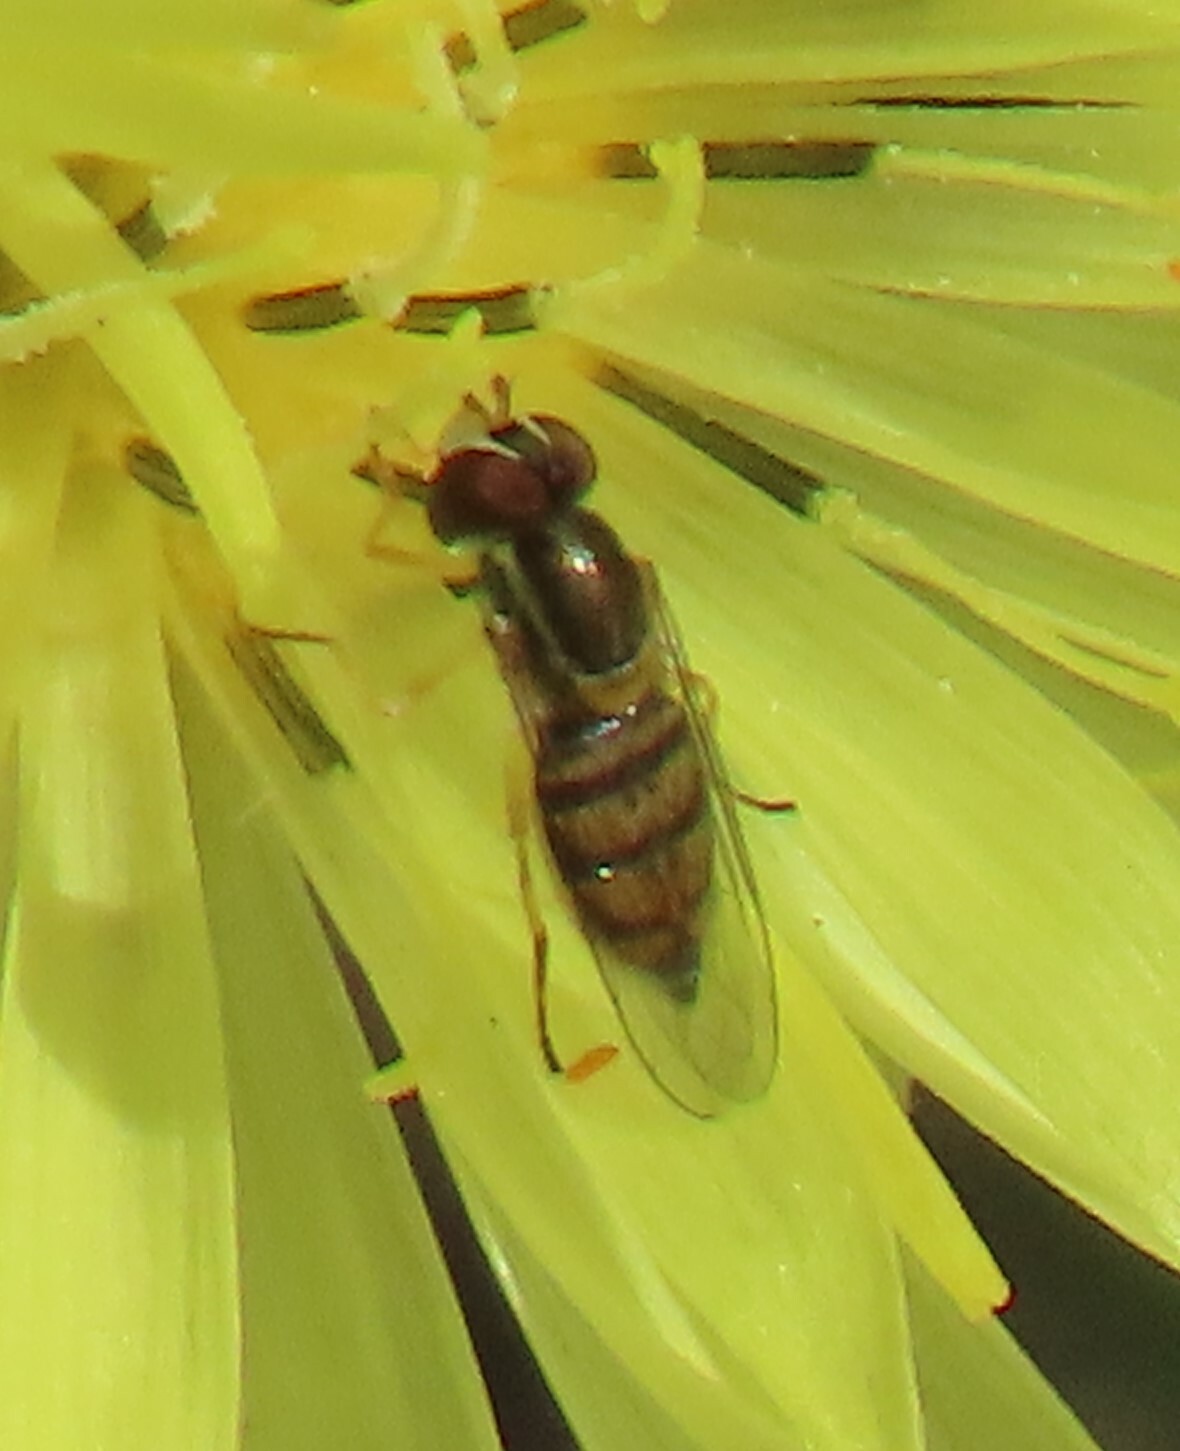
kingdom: Animalia
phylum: Arthropoda
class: Insecta
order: Diptera
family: Syrphidae
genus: Toxomerus
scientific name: Toxomerus marginatus
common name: Syrphid fly
